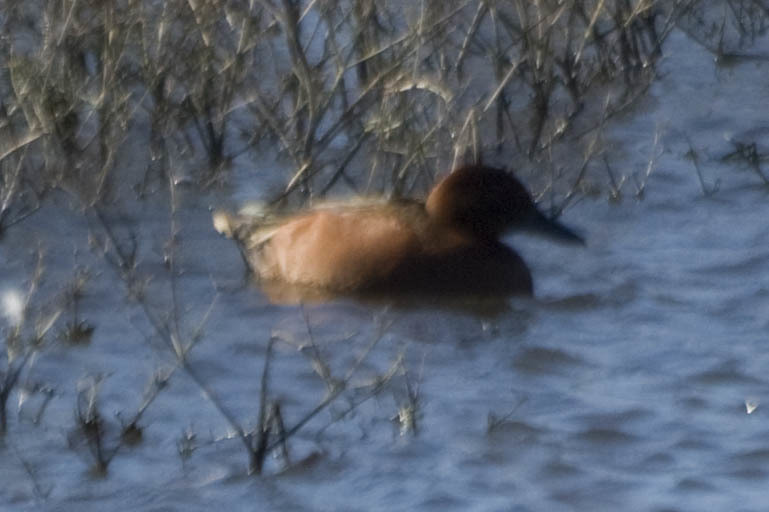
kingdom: Animalia
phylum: Chordata
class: Aves
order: Anseriformes
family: Anatidae
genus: Spatula
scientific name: Spatula cyanoptera
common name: Cinnamon teal
